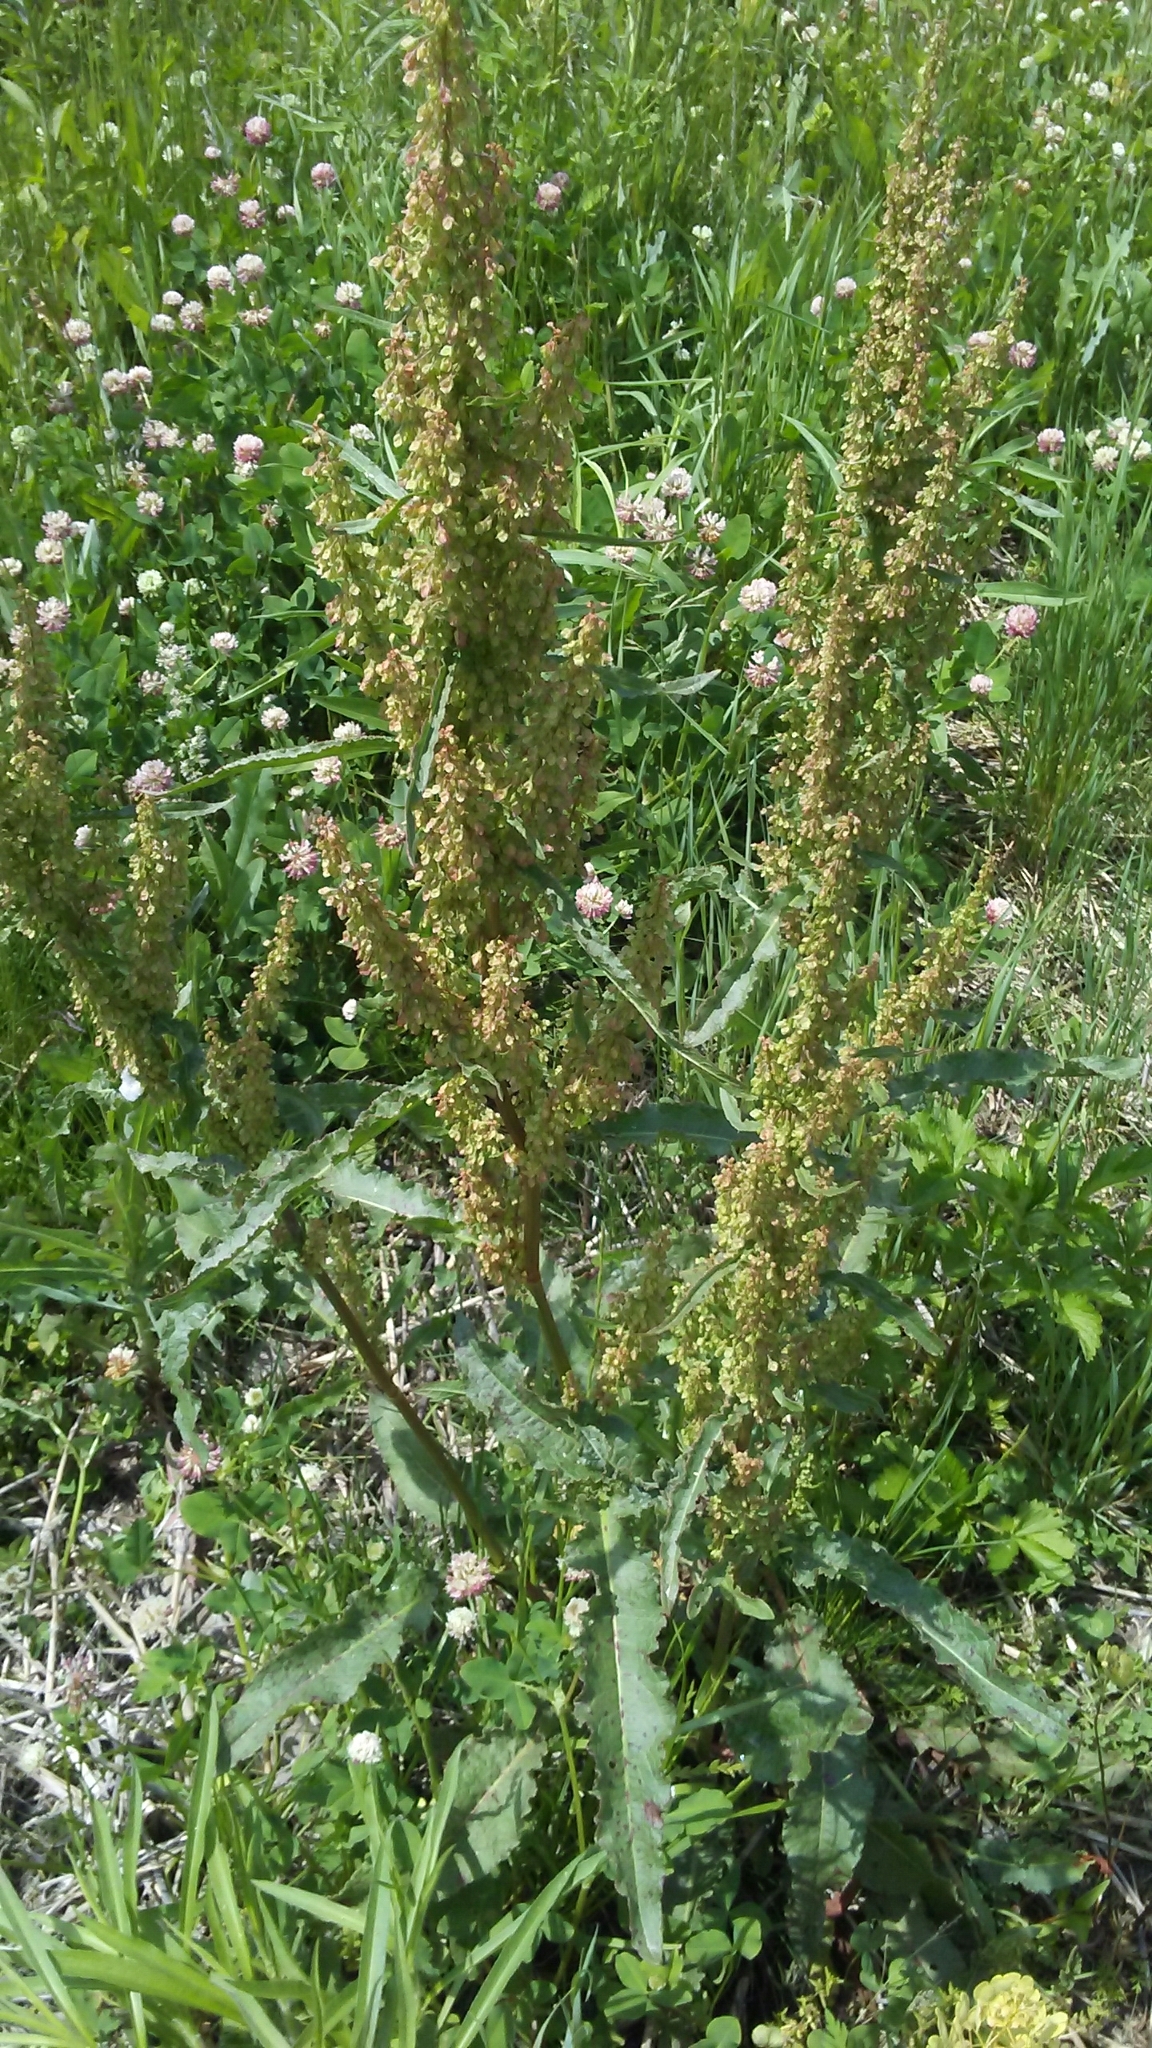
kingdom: Plantae
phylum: Tracheophyta
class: Magnoliopsida
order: Caryophyllales
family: Polygonaceae
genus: Rumex
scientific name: Rumex crispus
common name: Curled dock
